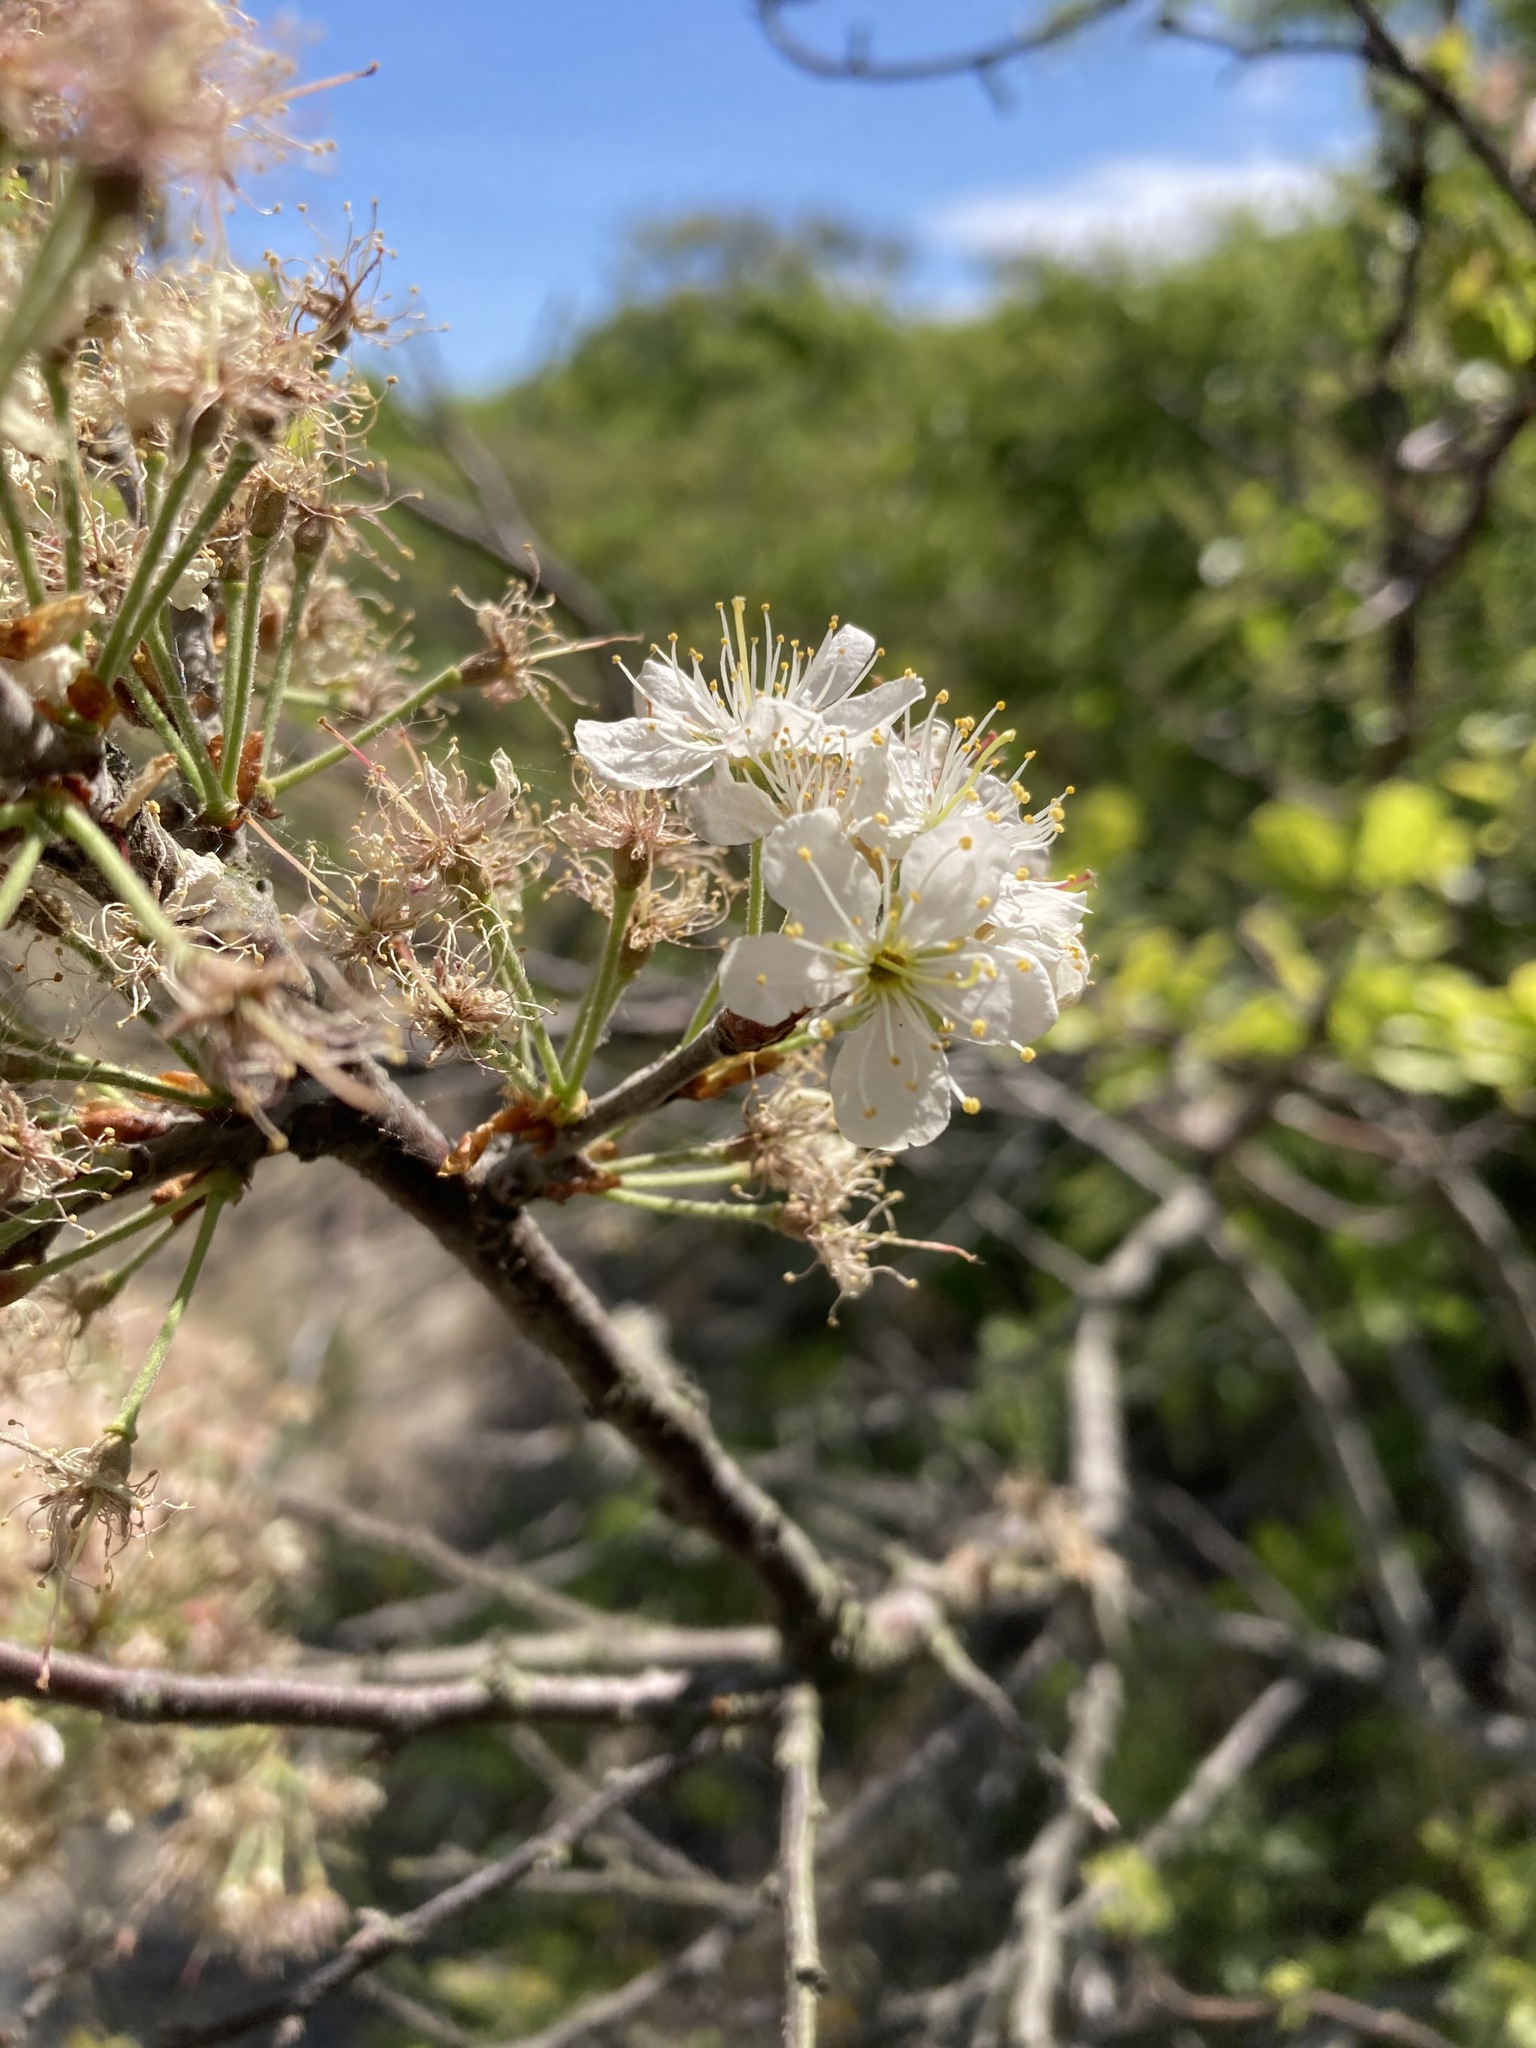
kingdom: Plantae
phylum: Tracheophyta
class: Magnoliopsida
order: Rosales
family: Rosaceae
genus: Prunus
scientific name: Prunus maritima
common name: Beach plum
